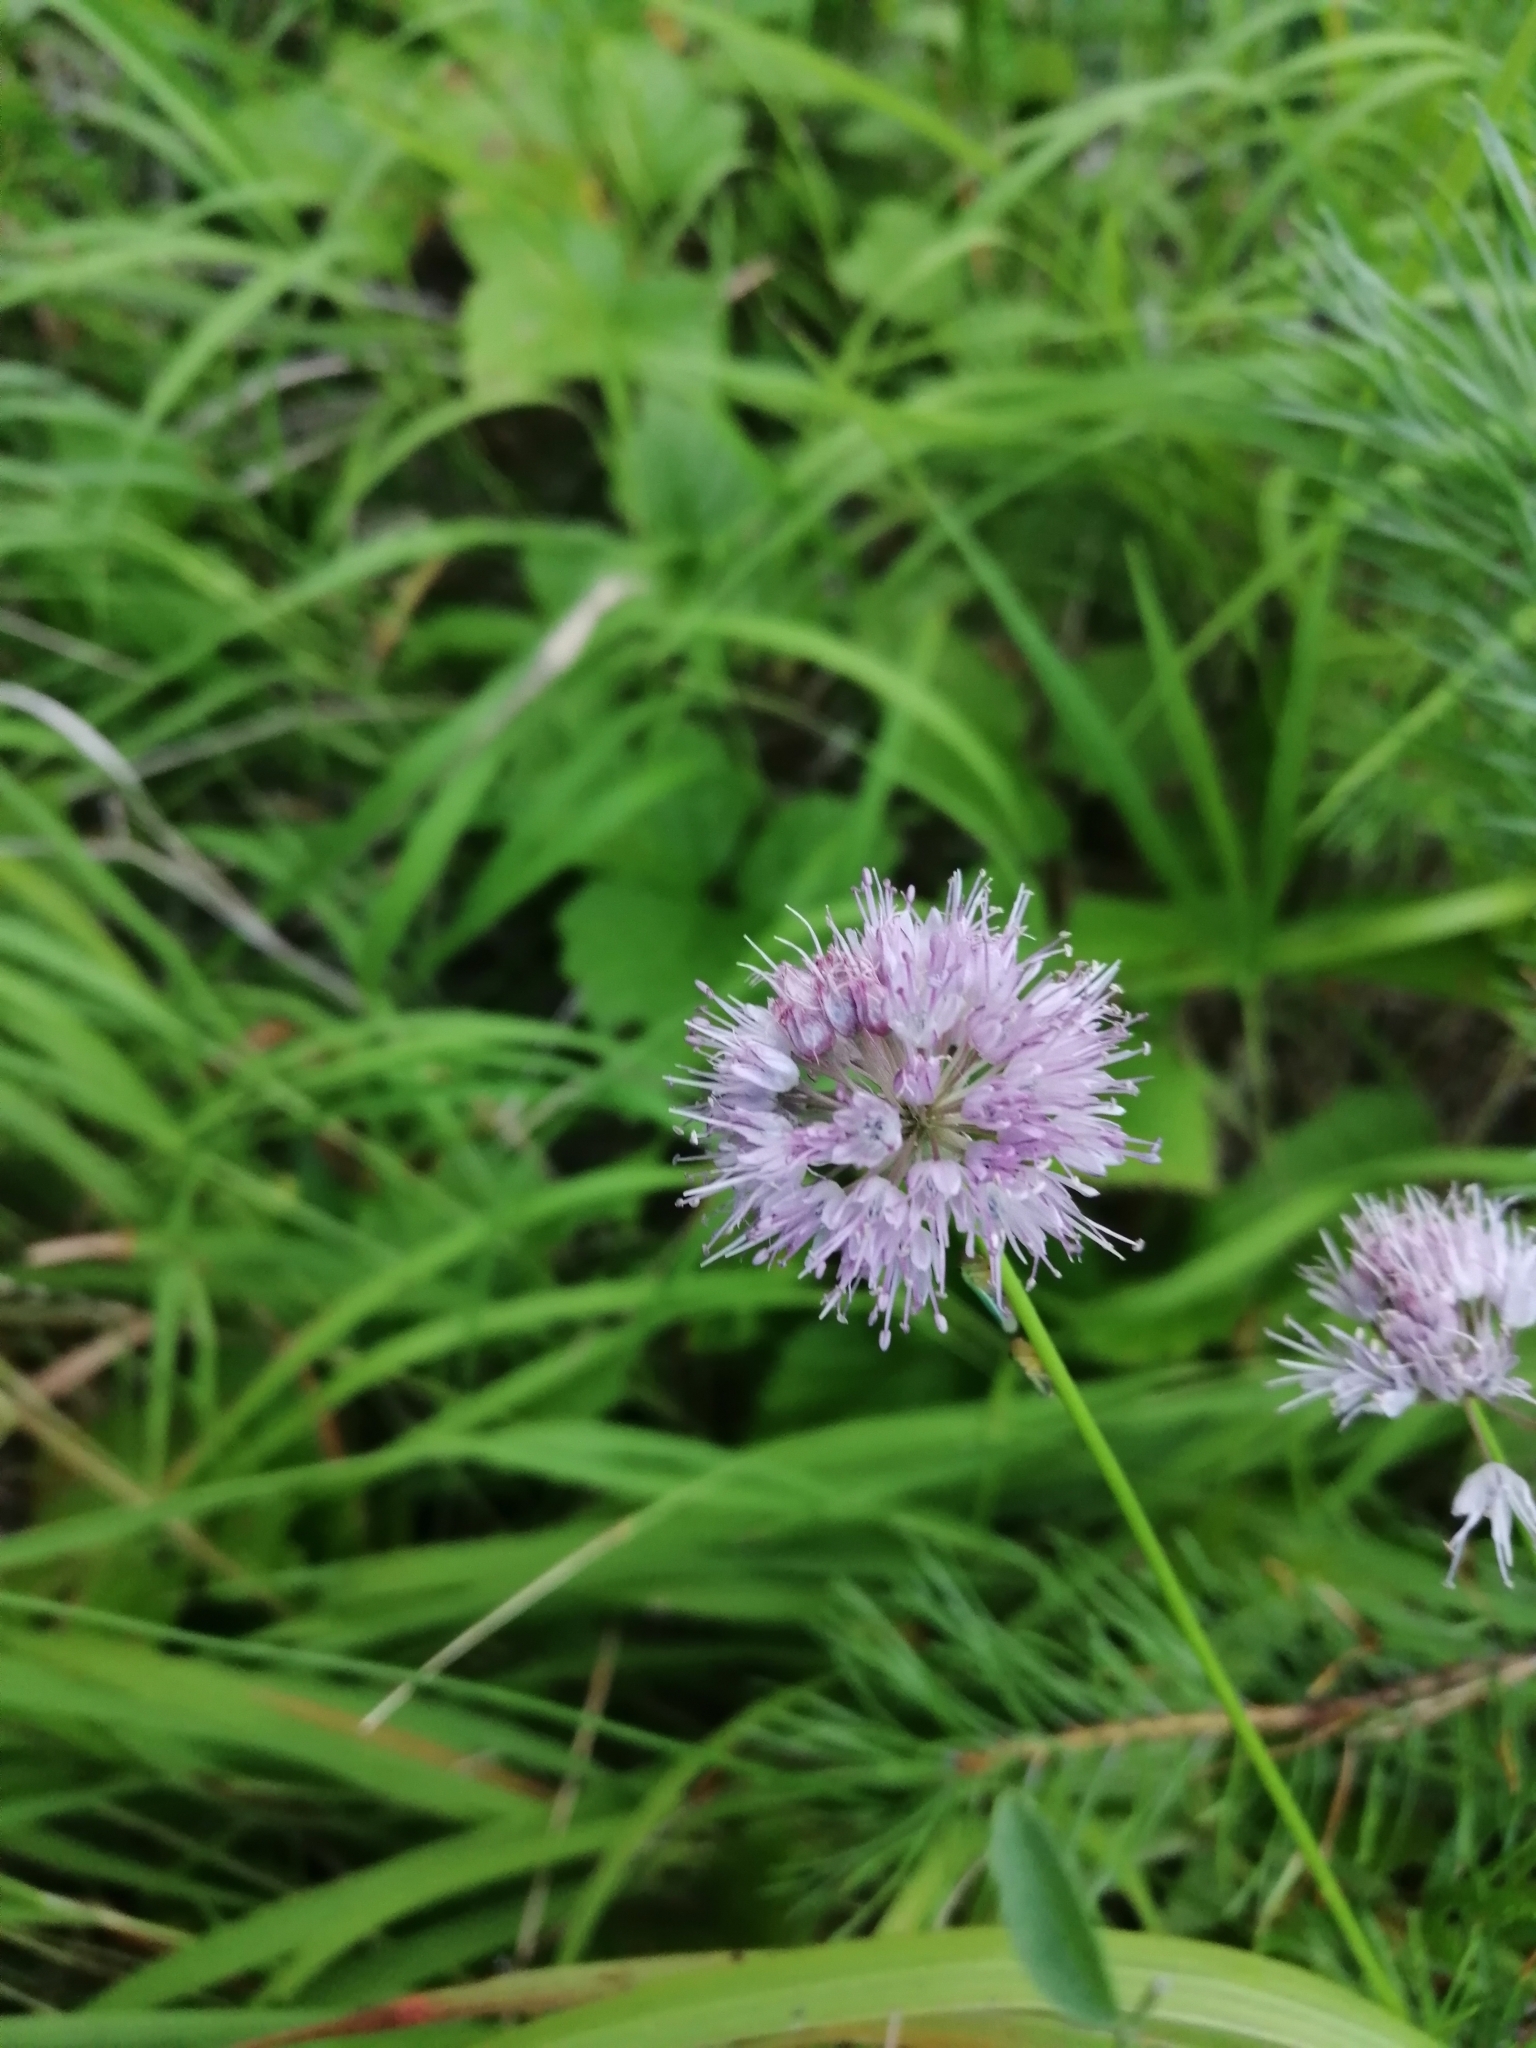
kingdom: Plantae
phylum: Tracheophyta
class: Liliopsida
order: Asparagales
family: Amaryllidaceae
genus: Allium
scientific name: Allium splendens
